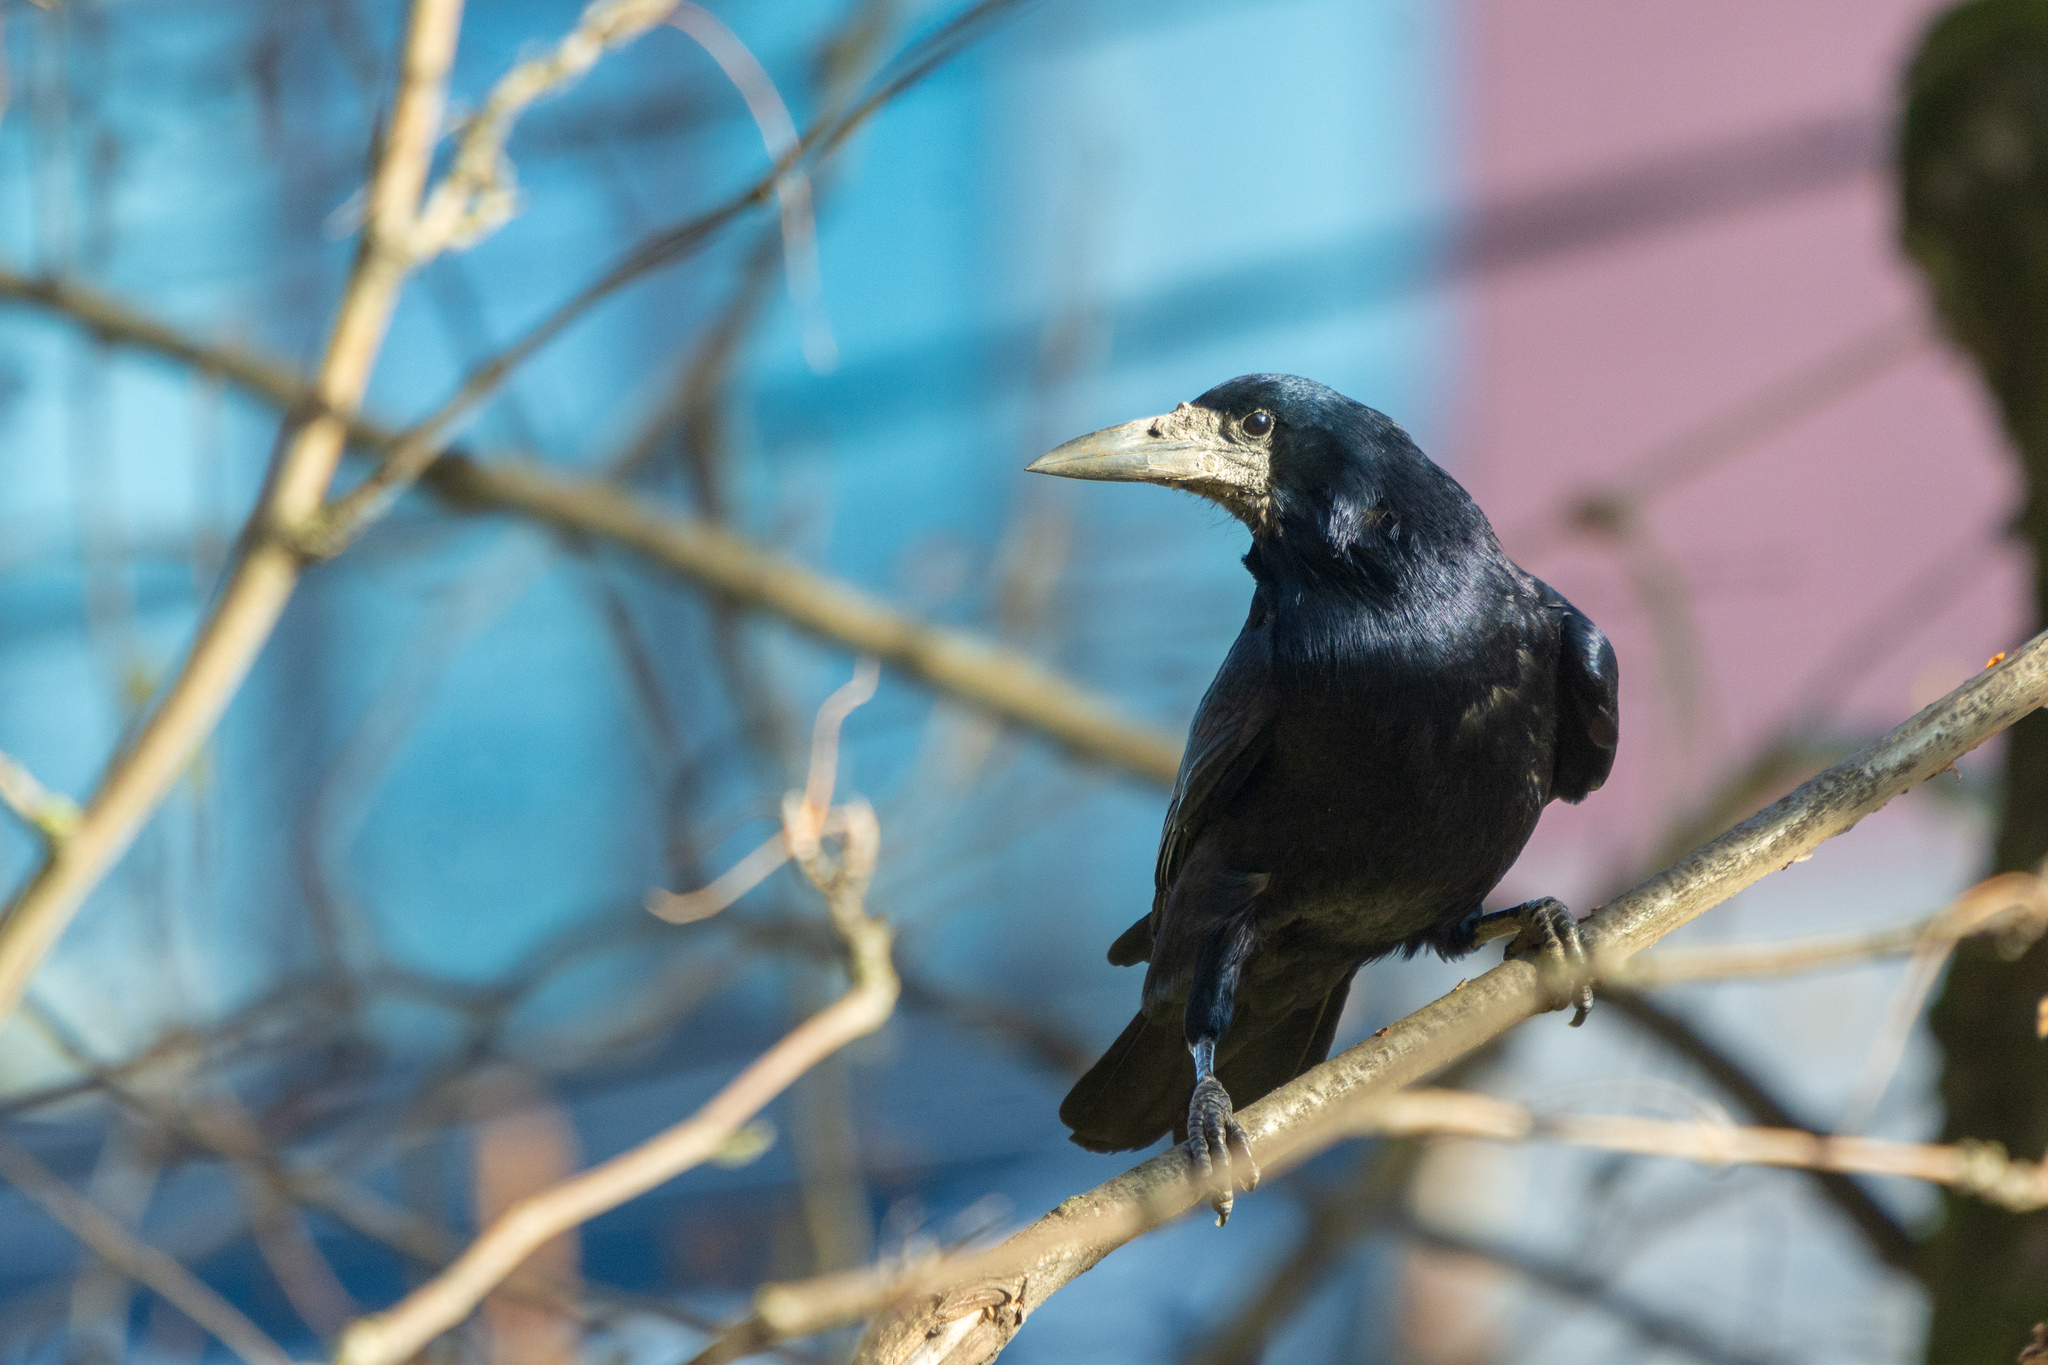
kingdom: Animalia
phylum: Chordata
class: Aves
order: Passeriformes
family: Corvidae
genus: Corvus
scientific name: Corvus frugilegus
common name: Rook
